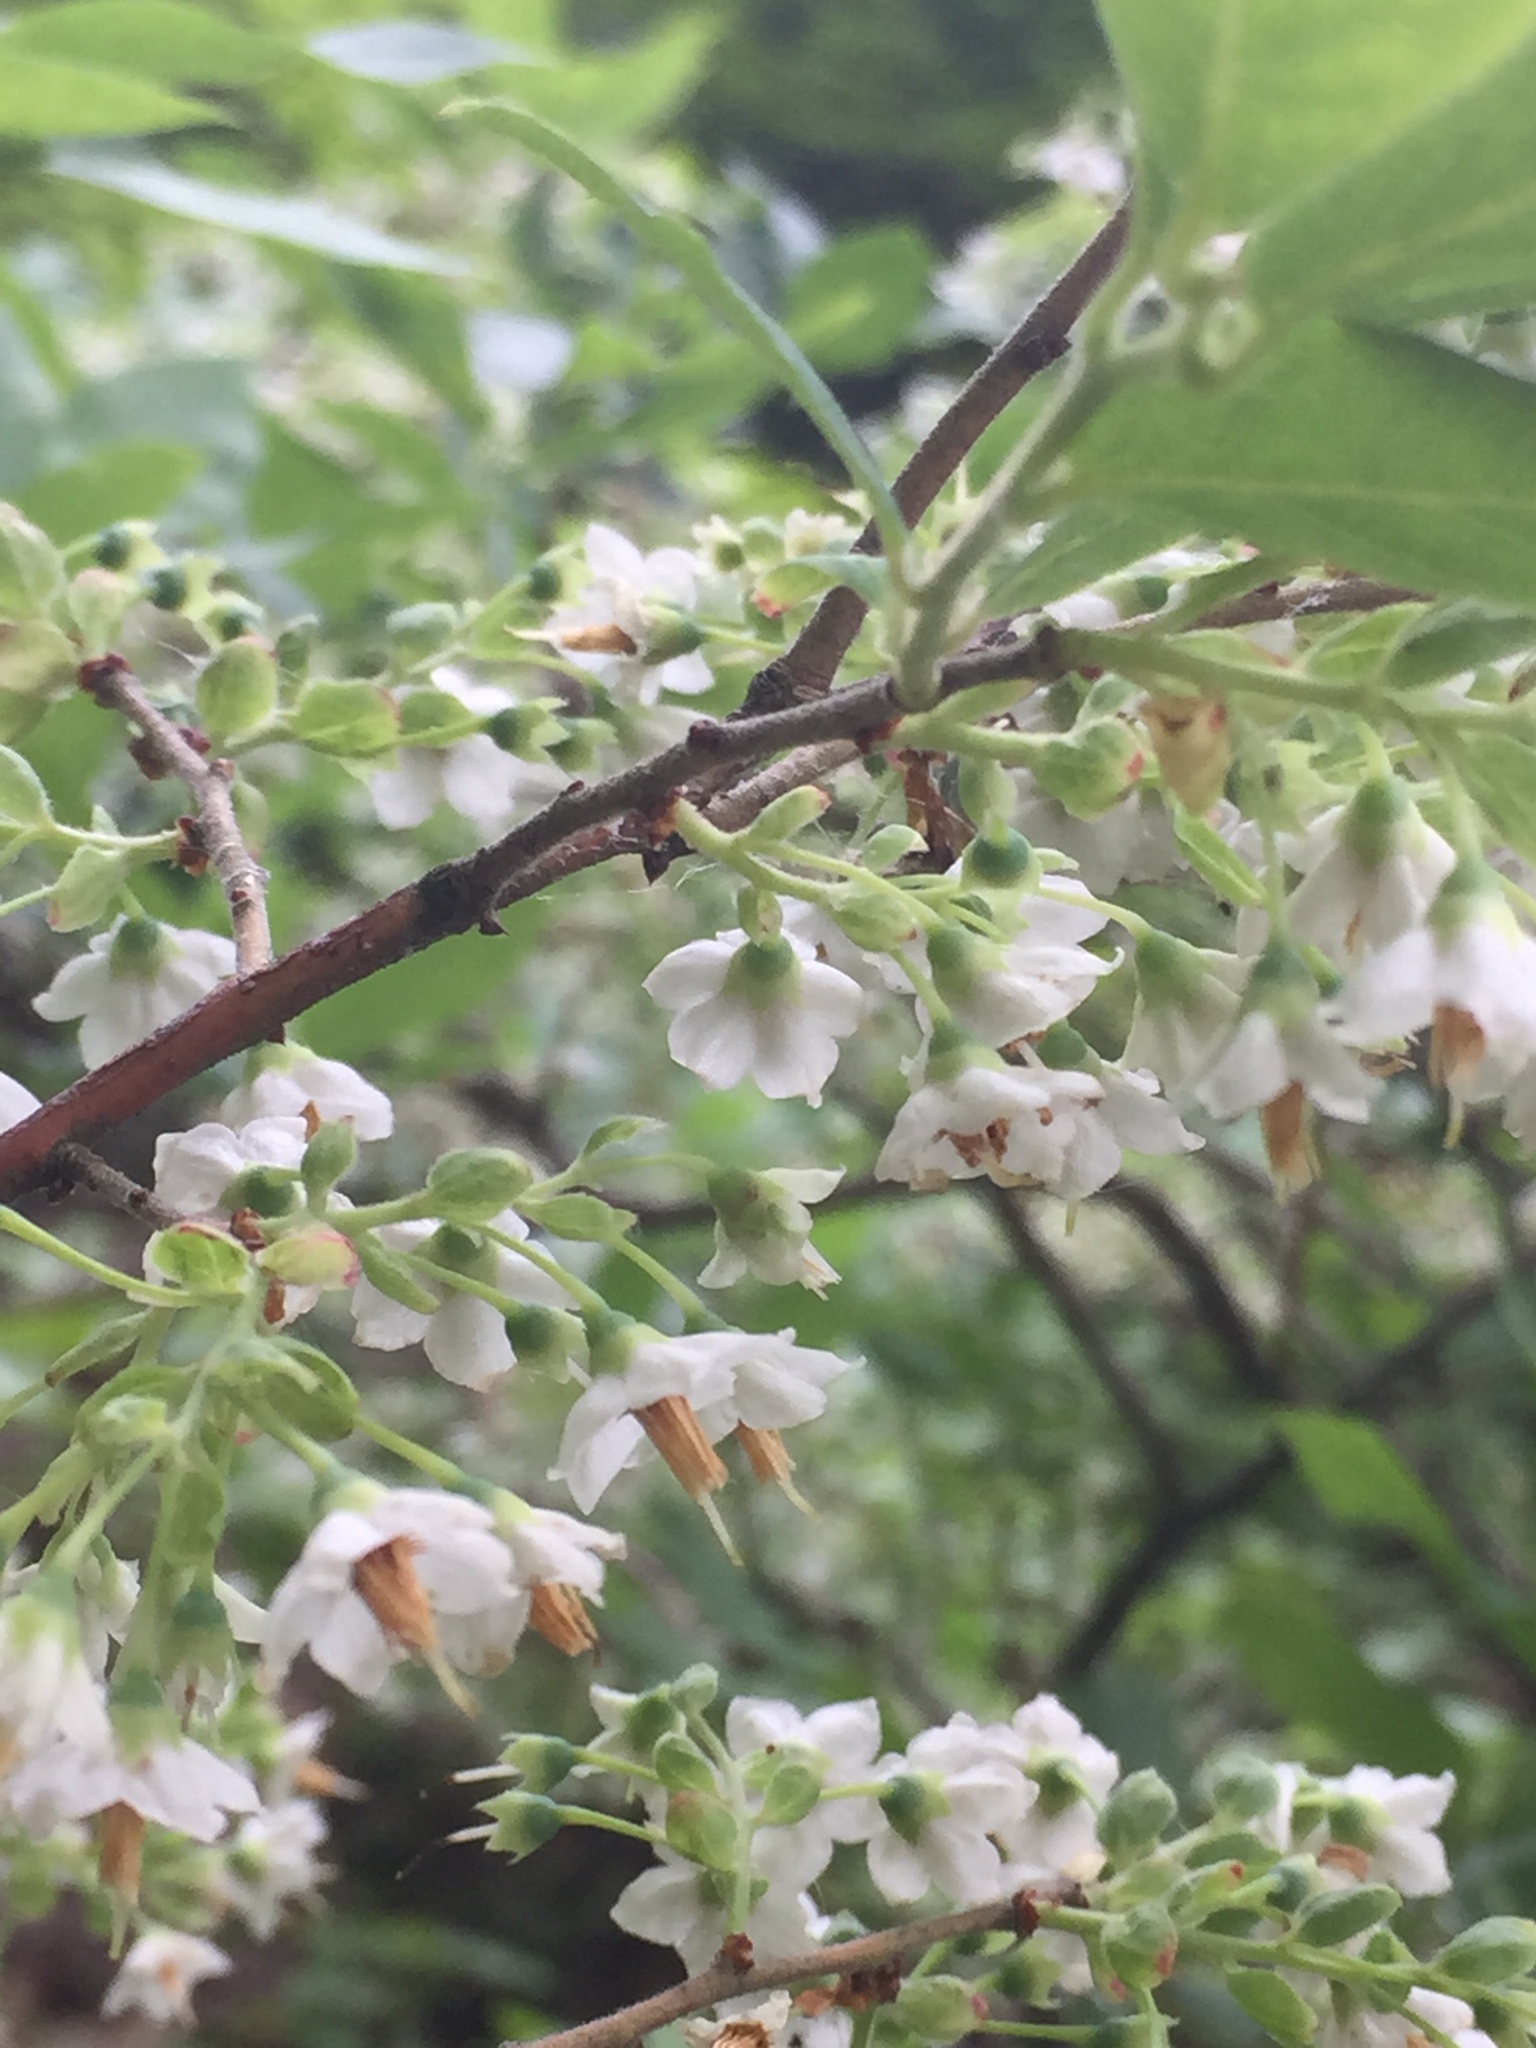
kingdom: Plantae
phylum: Tracheophyta
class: Magnoliopsida
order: Ericales
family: Ericaceae
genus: Vaccinium
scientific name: Vaccinium stamineum
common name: Deerberry
